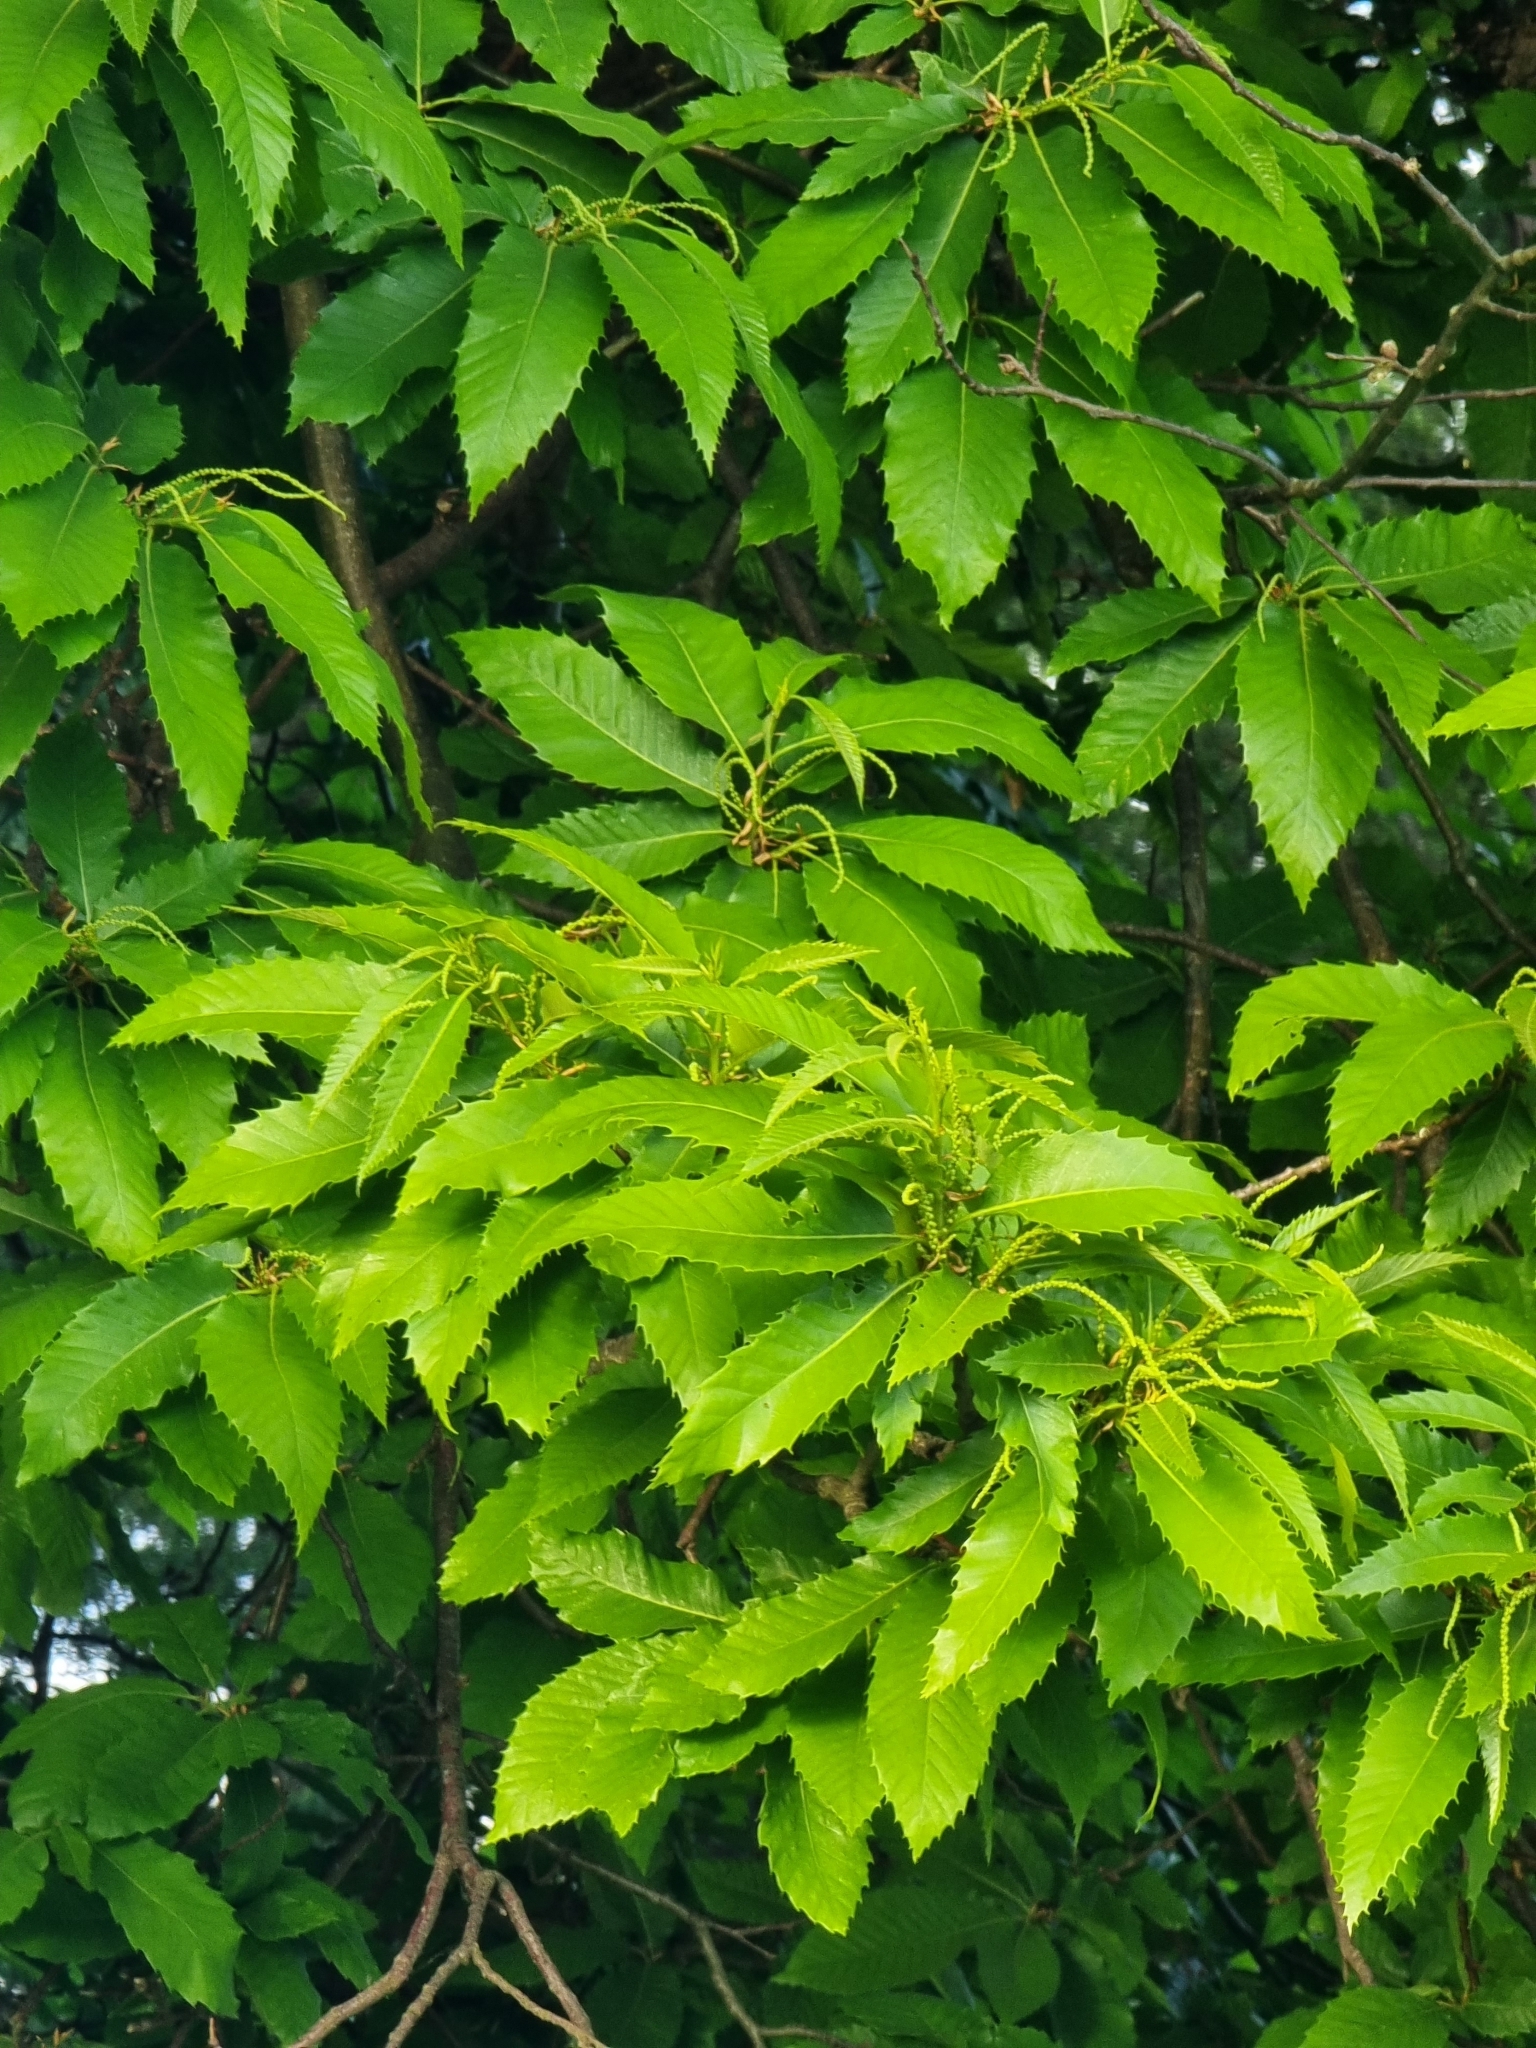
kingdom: Plantae
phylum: Tracheophyta
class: Magnoliopsida
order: Fagales
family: Fagaceae
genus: Castanea
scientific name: Castanea sativa
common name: Sweet chestnut
